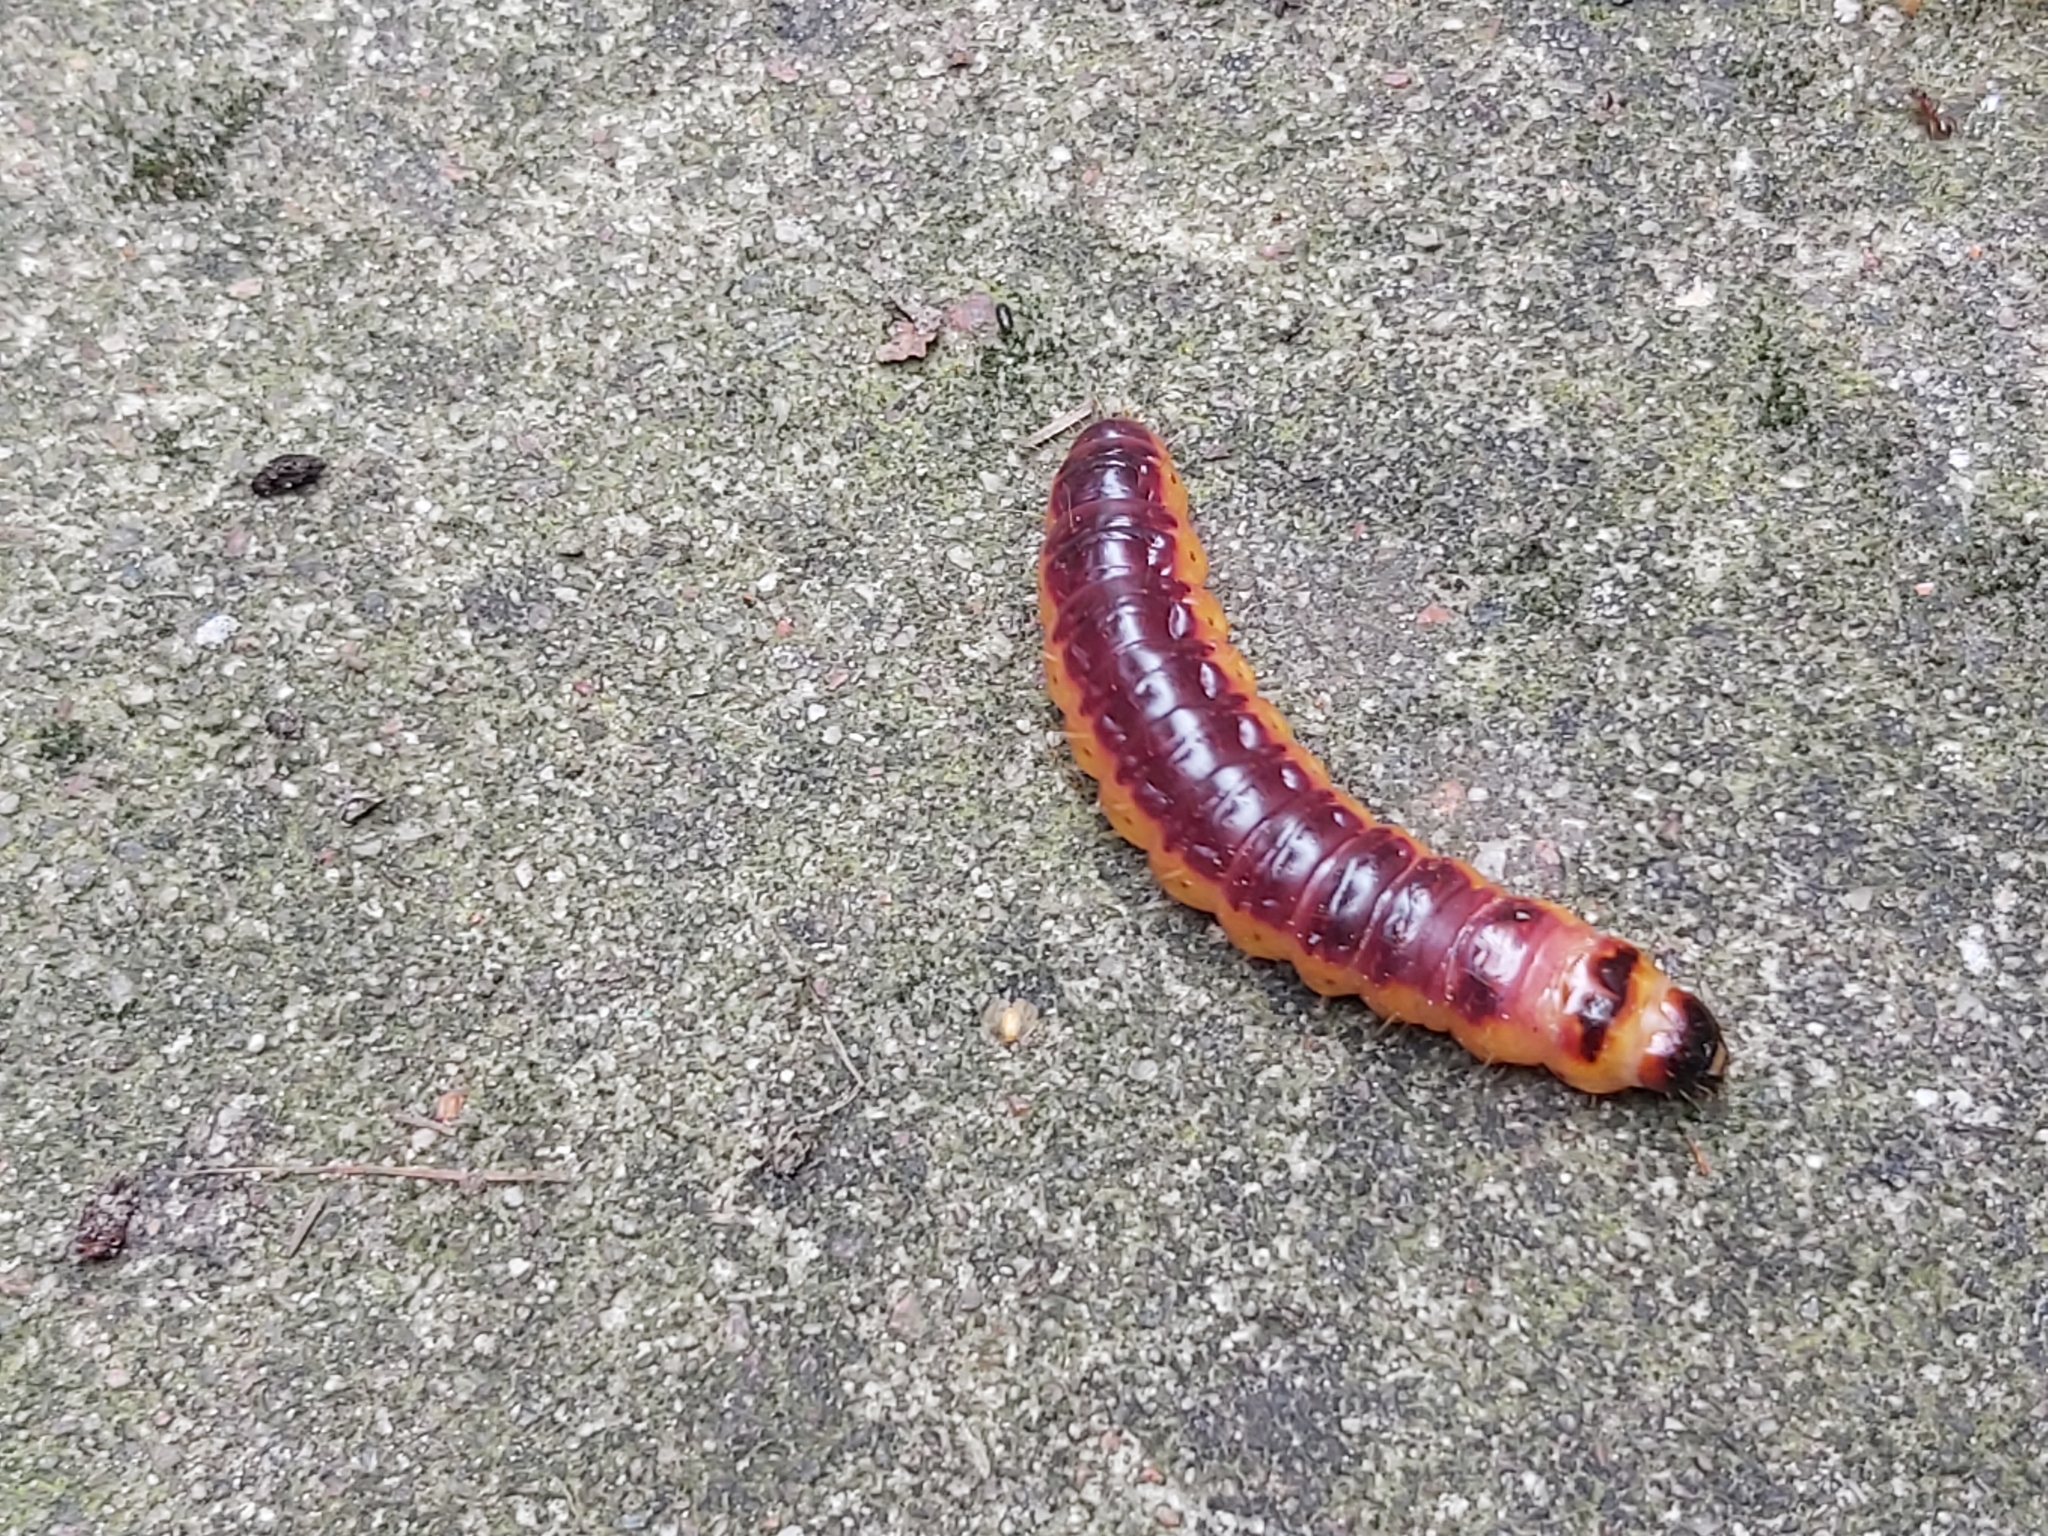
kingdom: Animalia
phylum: Arthropoda
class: Insecta
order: Lepidoptera
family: Cossidae
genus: Cossus
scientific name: Cossus cossus
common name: Goat moth
